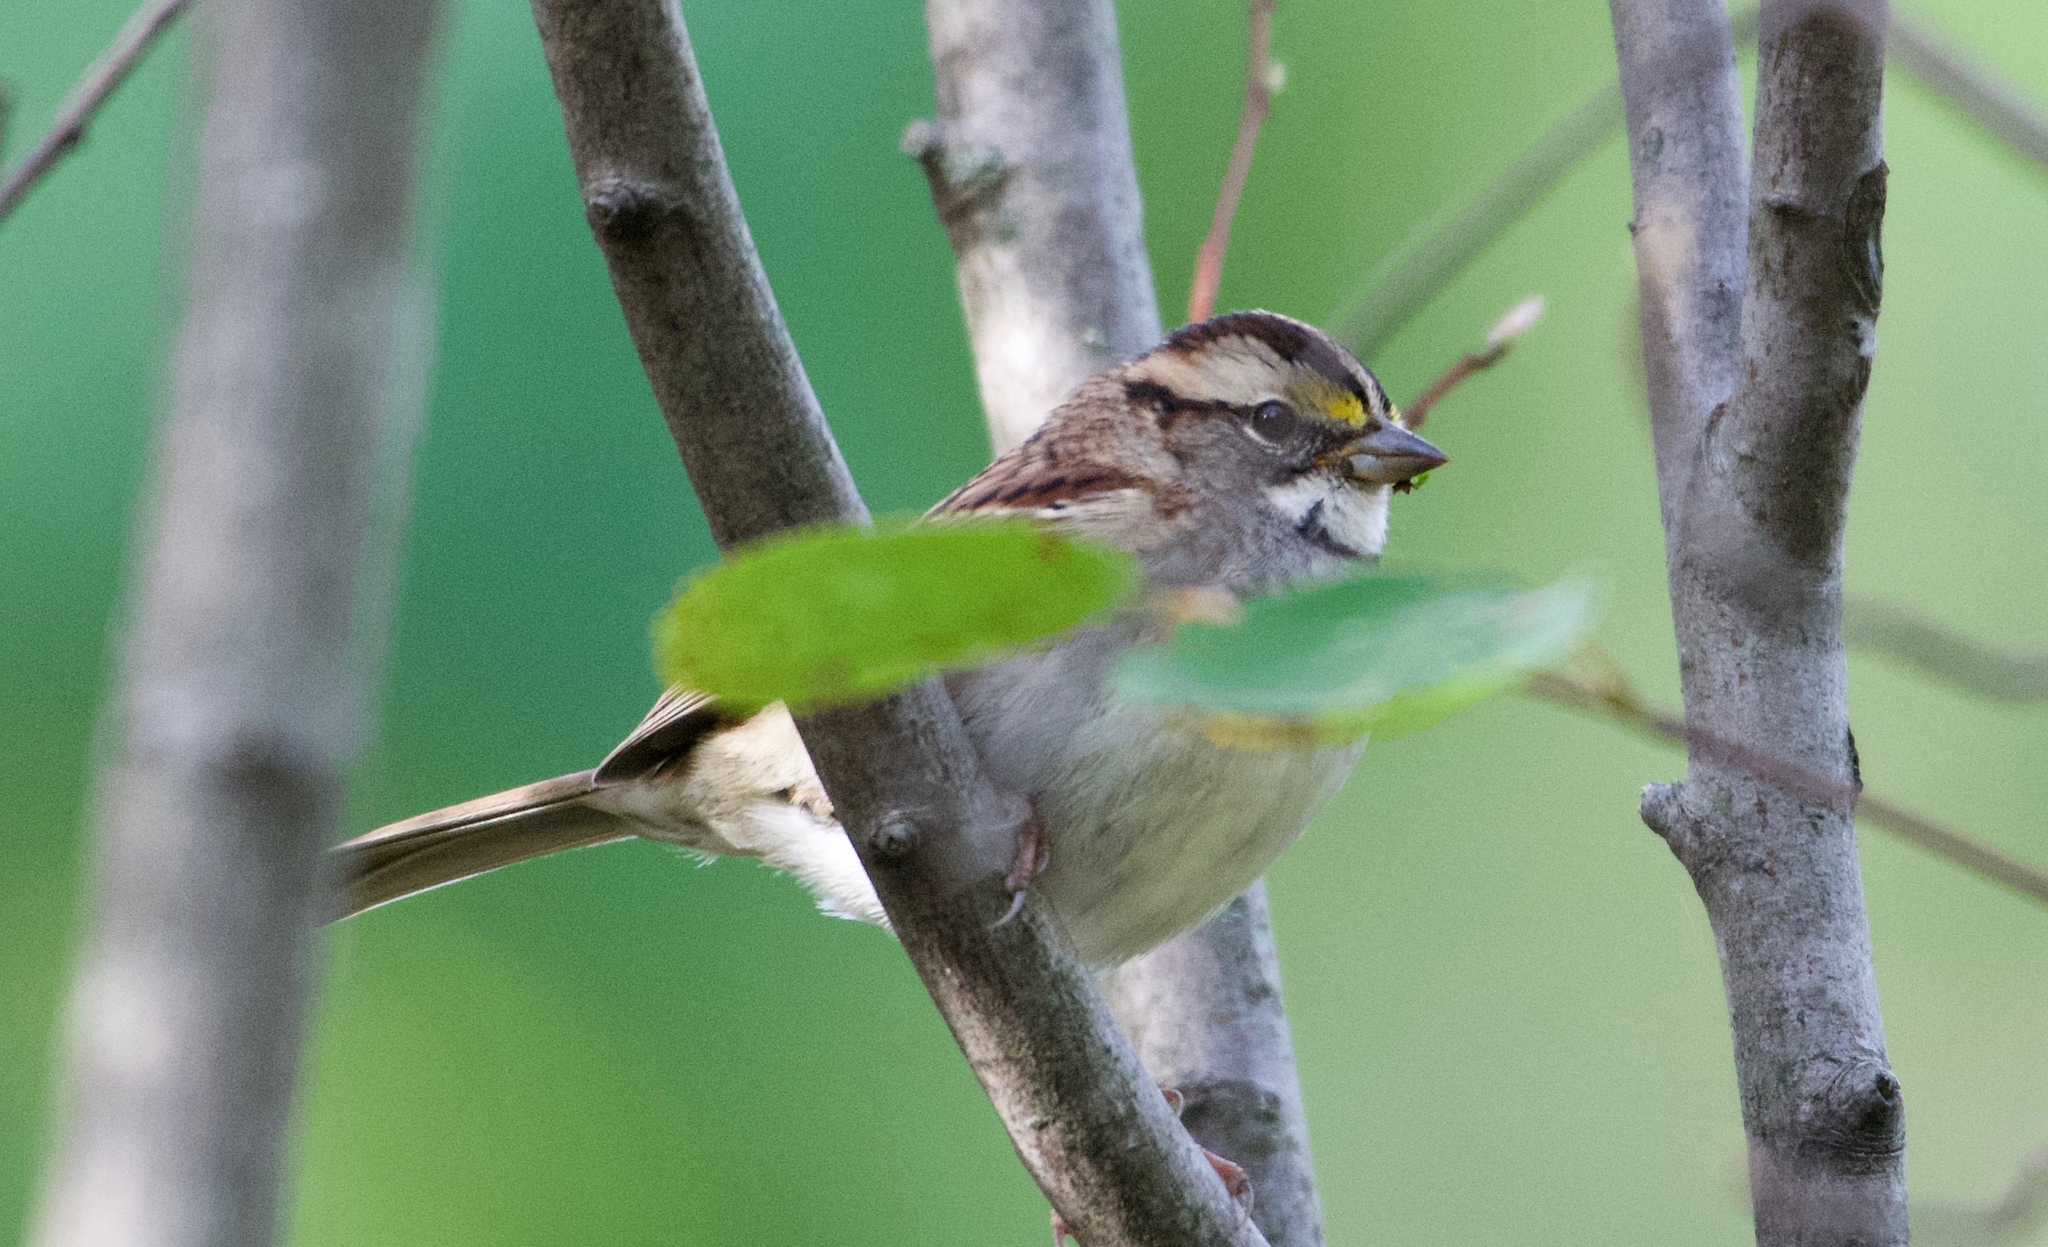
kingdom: Animalia
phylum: Chordata
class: Aves
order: Passeriformes
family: Passerellidae
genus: Zonotrichia
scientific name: Zonotrichia albicollis
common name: White-throated sparrow
